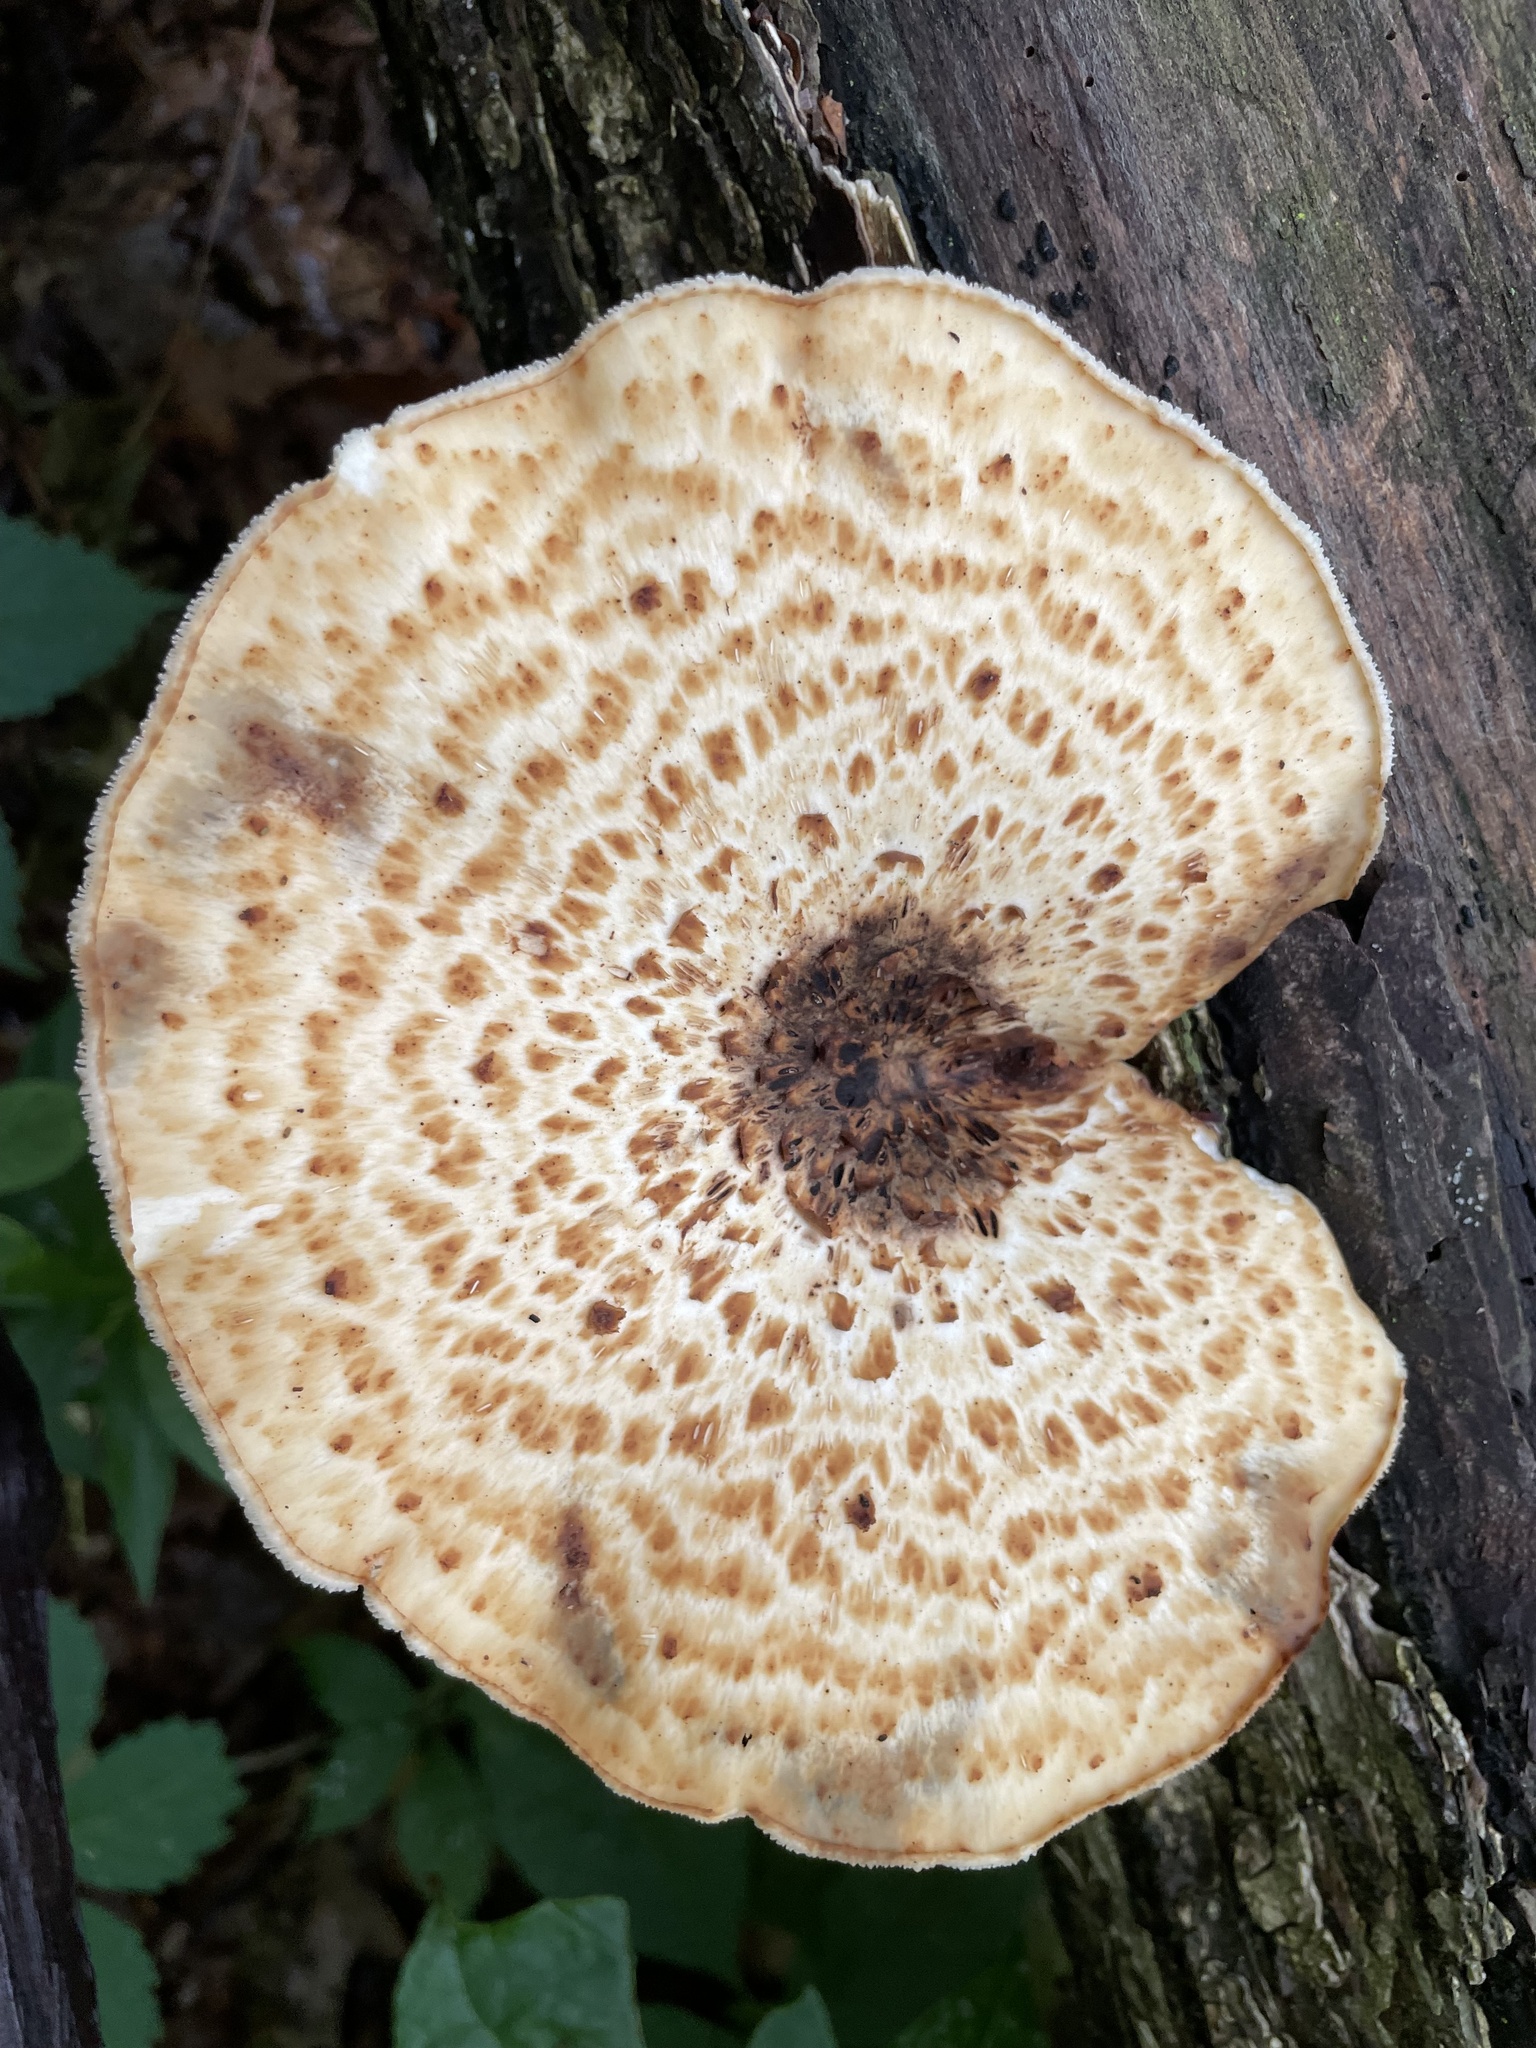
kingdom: Fungi
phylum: Basidiomycota
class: Agaricomycetes
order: Polyporales
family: Polyporaceae
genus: Cerioporus
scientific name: Cerioporus squamosus
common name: Dryad's saddle
